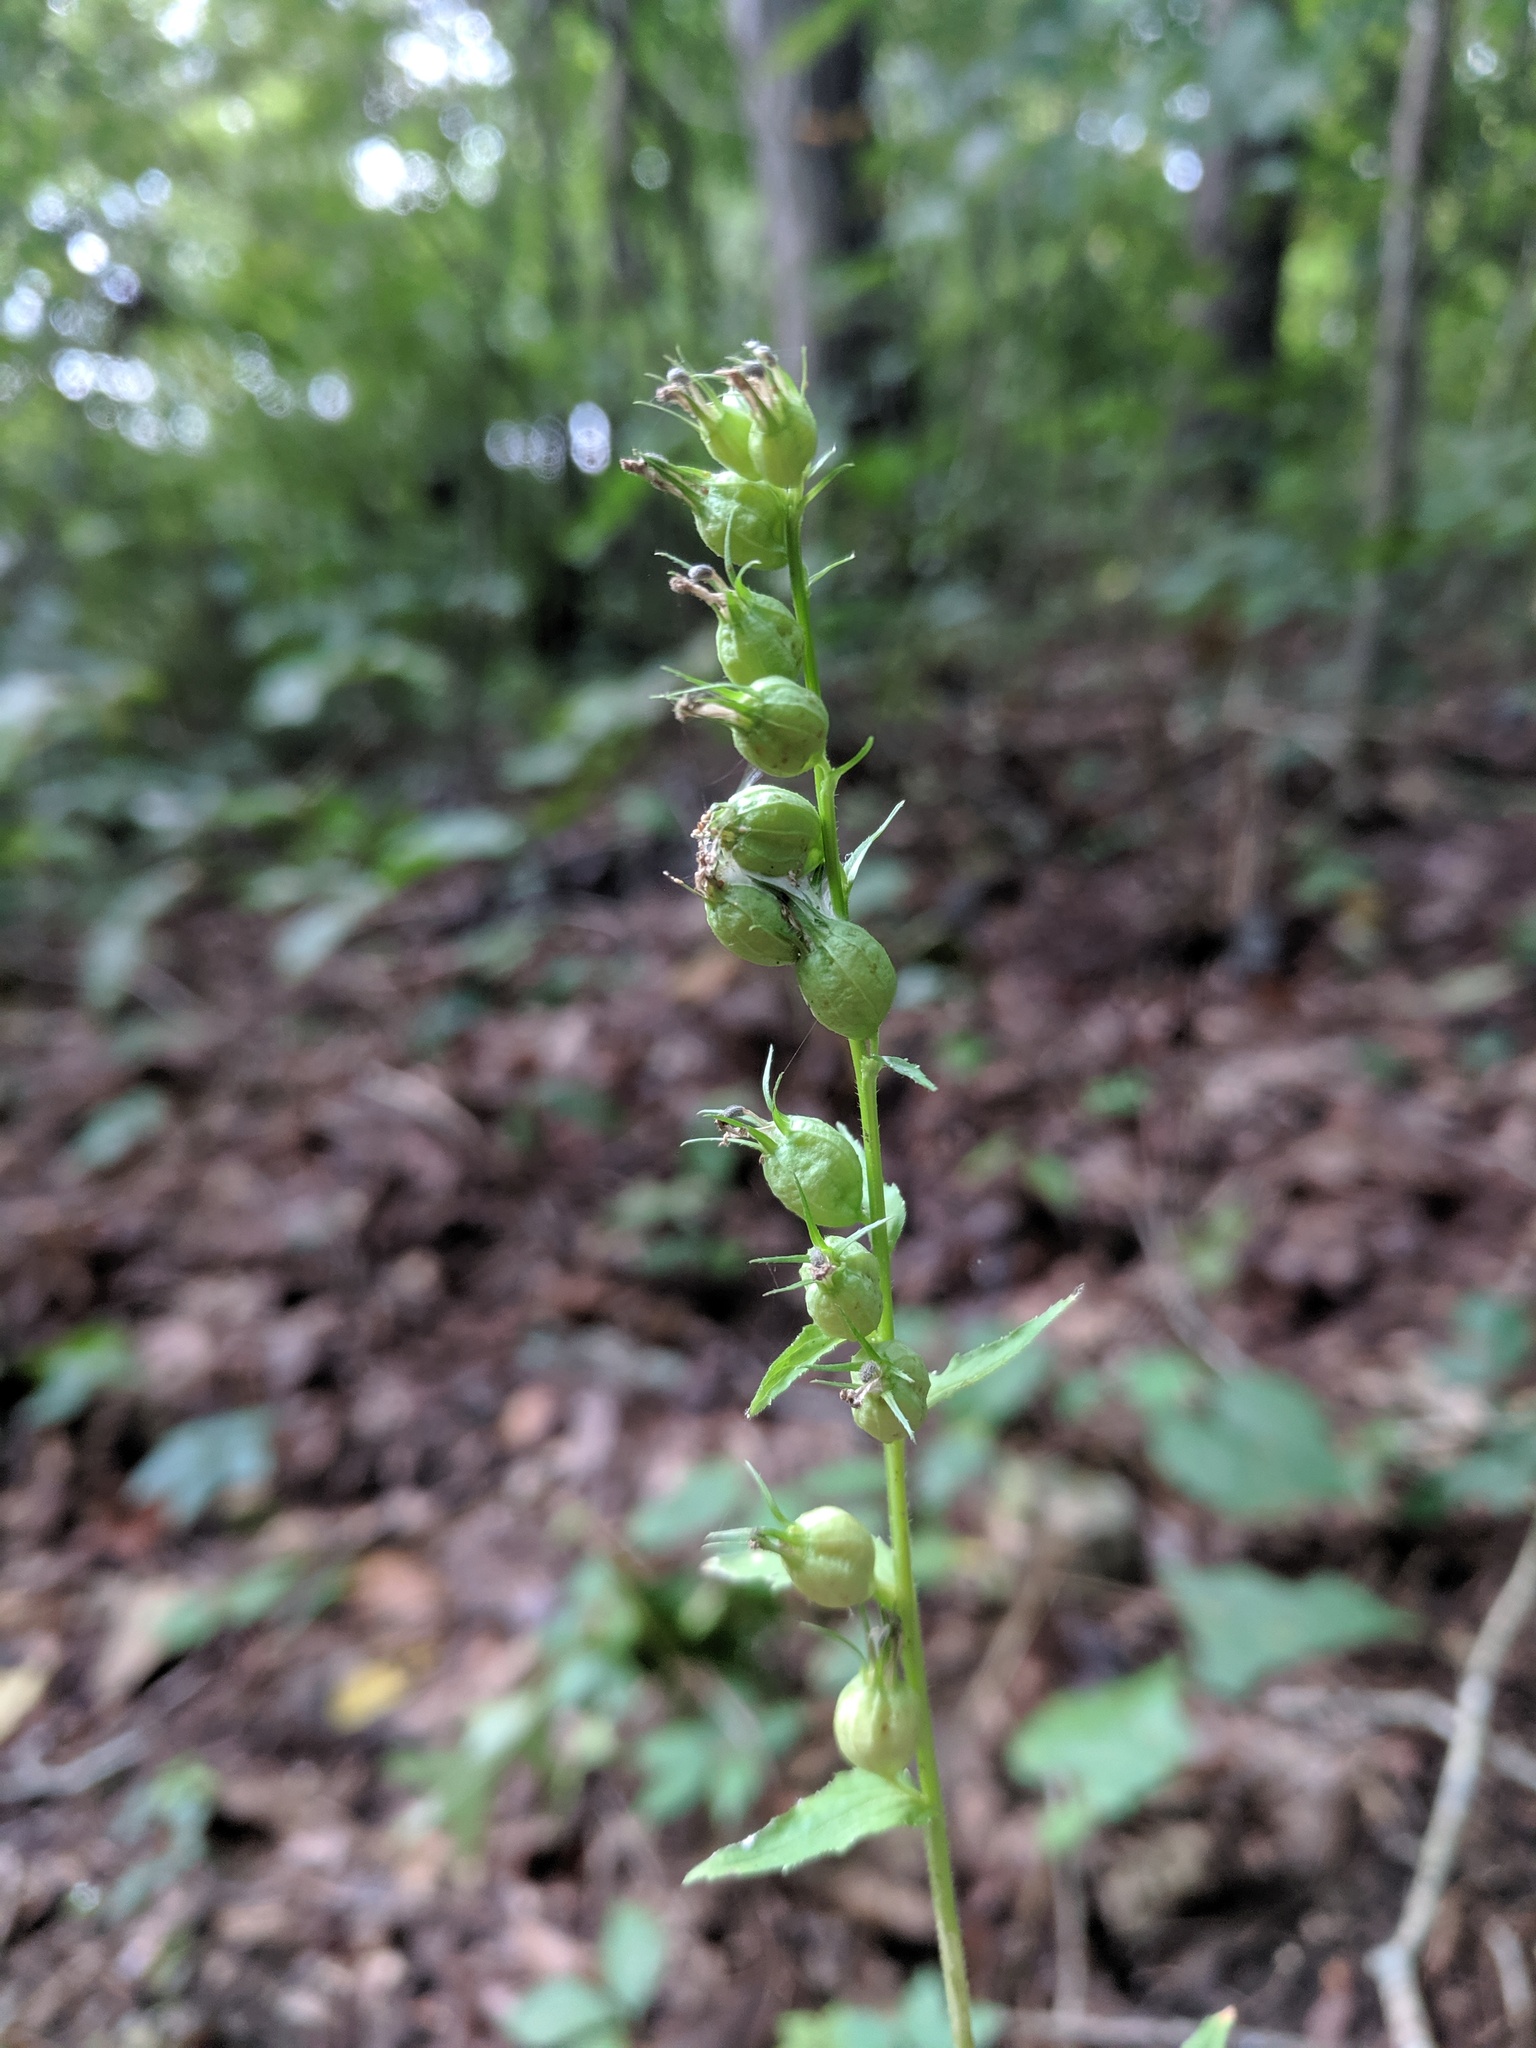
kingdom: Plantae
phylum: Tracheophyta
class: Magnoliopsida
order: Asterales
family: Campanulaceae
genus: Lobelia
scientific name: Lobelia inflata
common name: Indian tobacco
